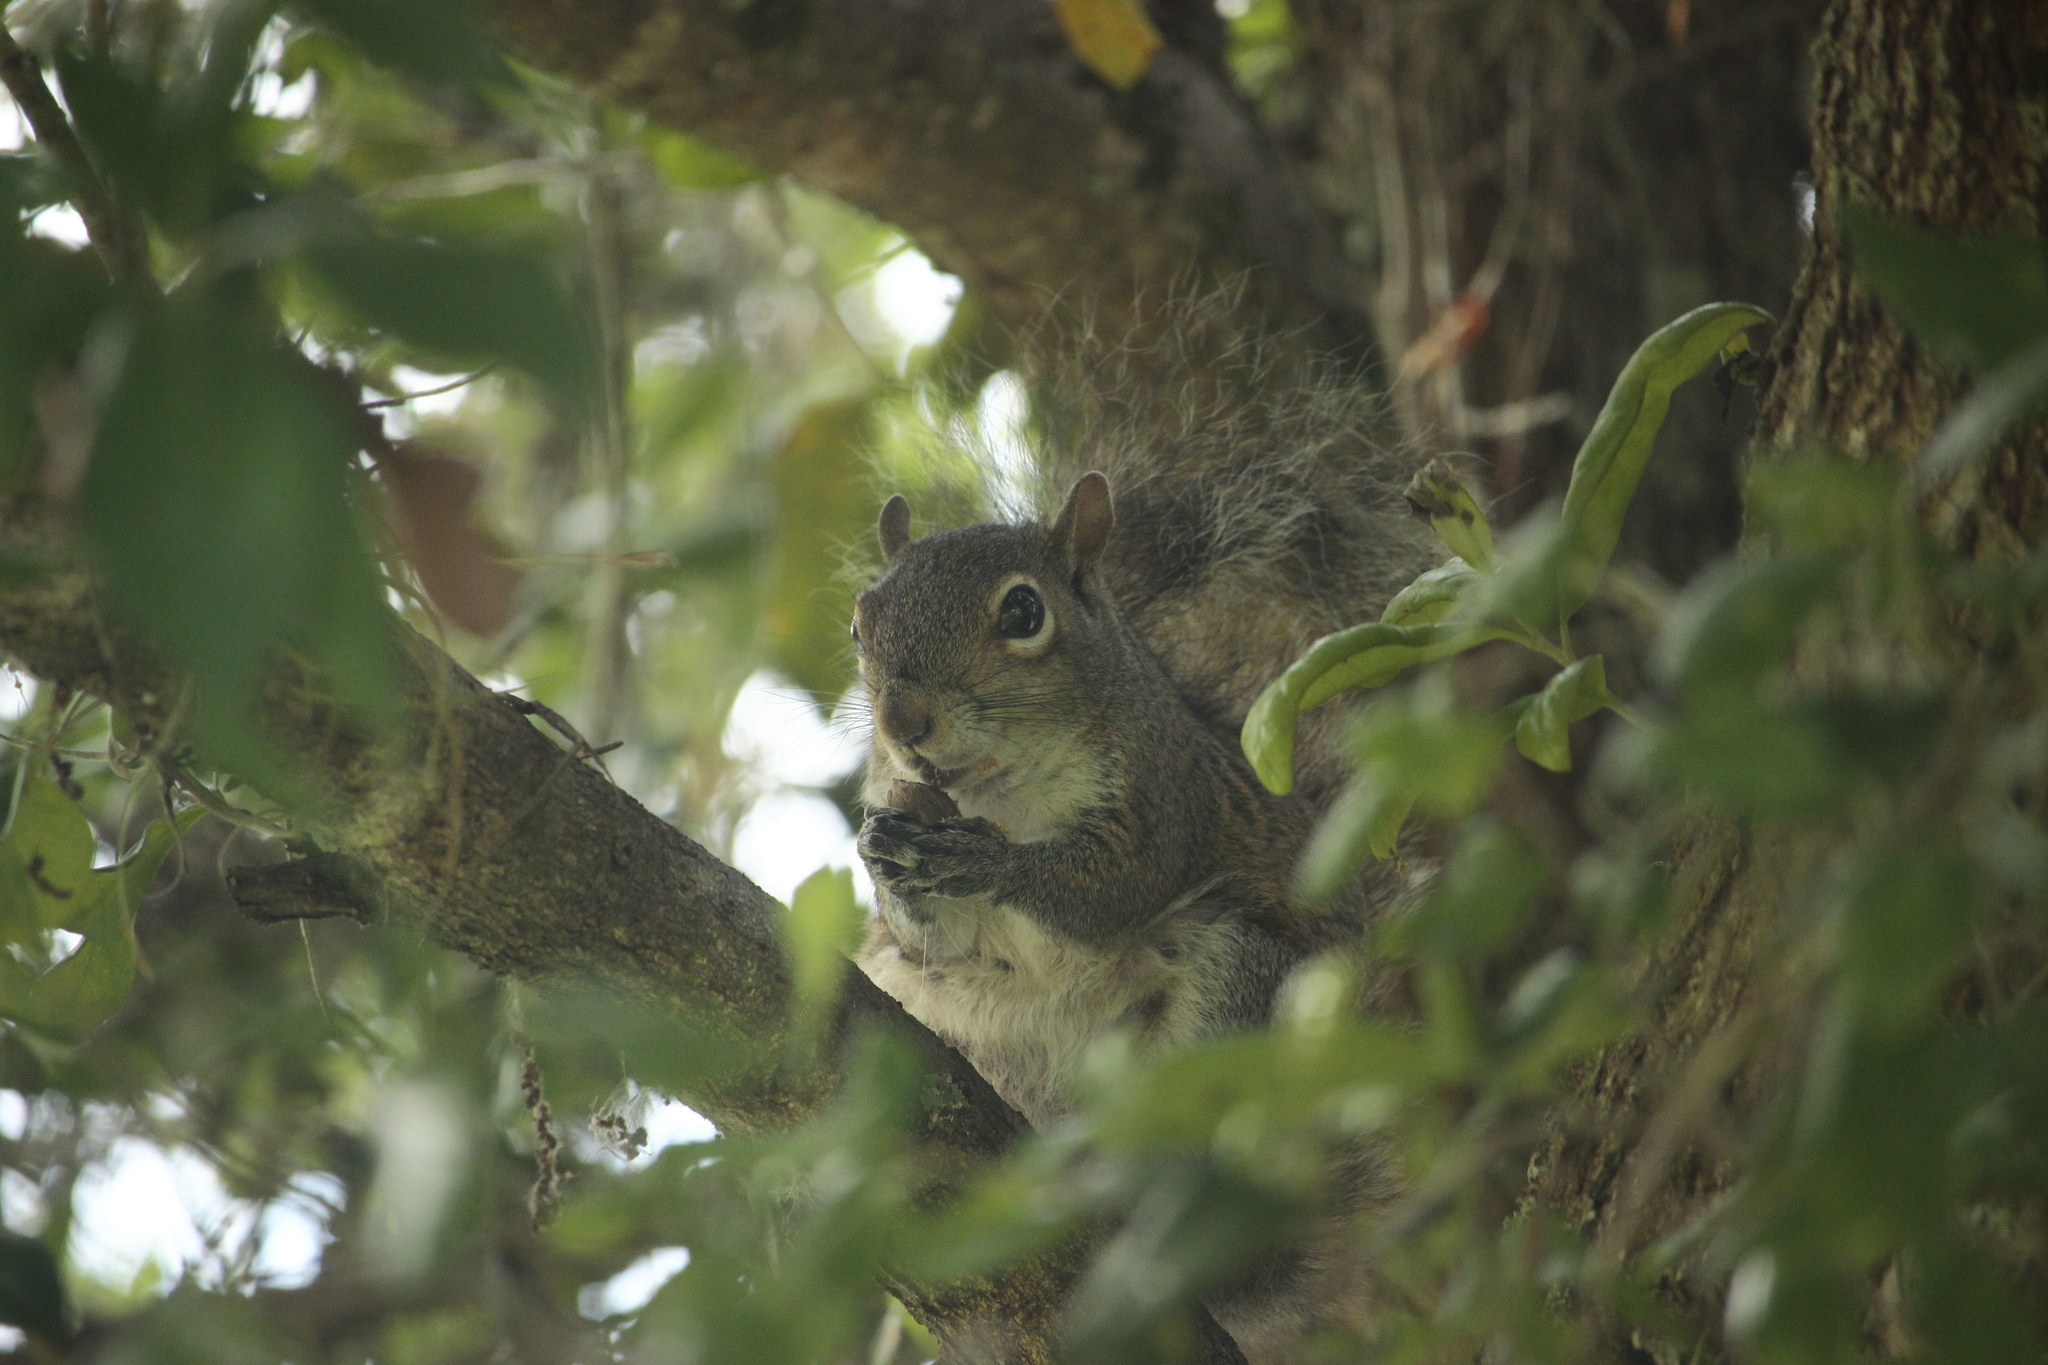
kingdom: Animalia
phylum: Chordata
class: Mammalia
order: Rodentia
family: Sciuridae
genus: Sciurus
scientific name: Sciurus carolinensis
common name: Eastern gray squirrel
